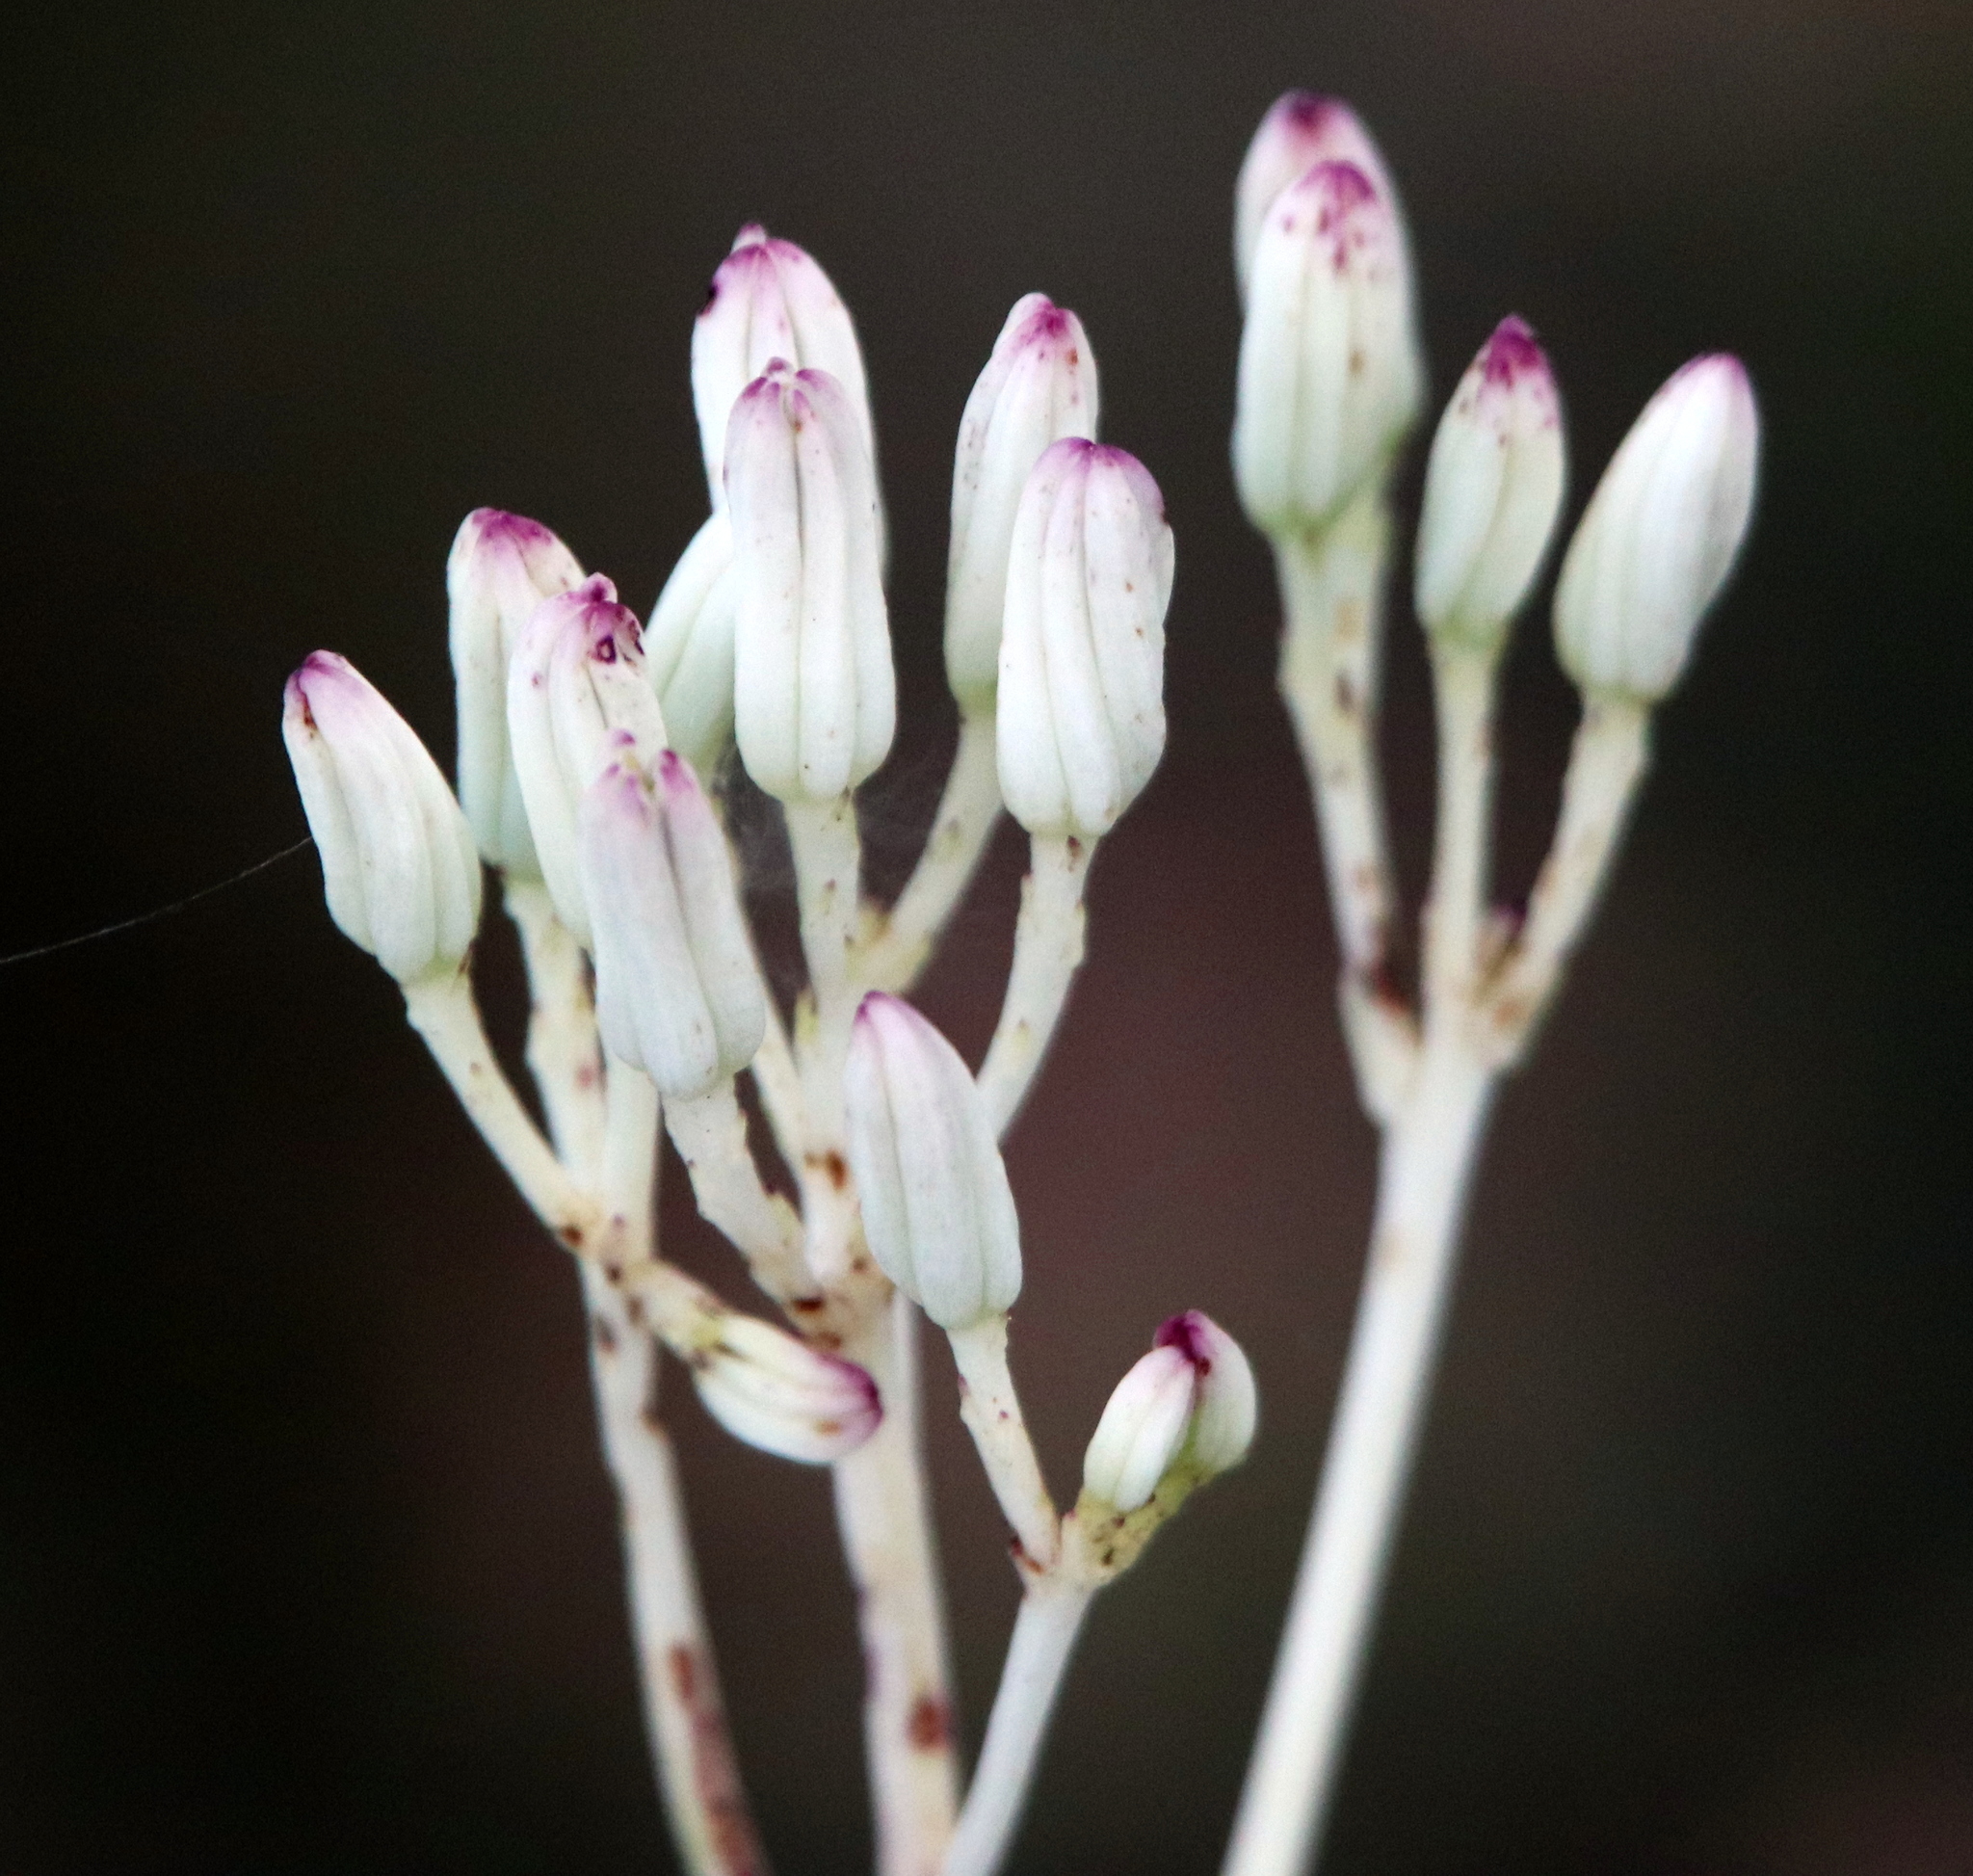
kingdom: Plantae
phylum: Tracheophyta
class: Magnoliopsida
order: Asterales
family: Asteraceae
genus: Arnoglossum
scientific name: Arnoglossum ovatum
